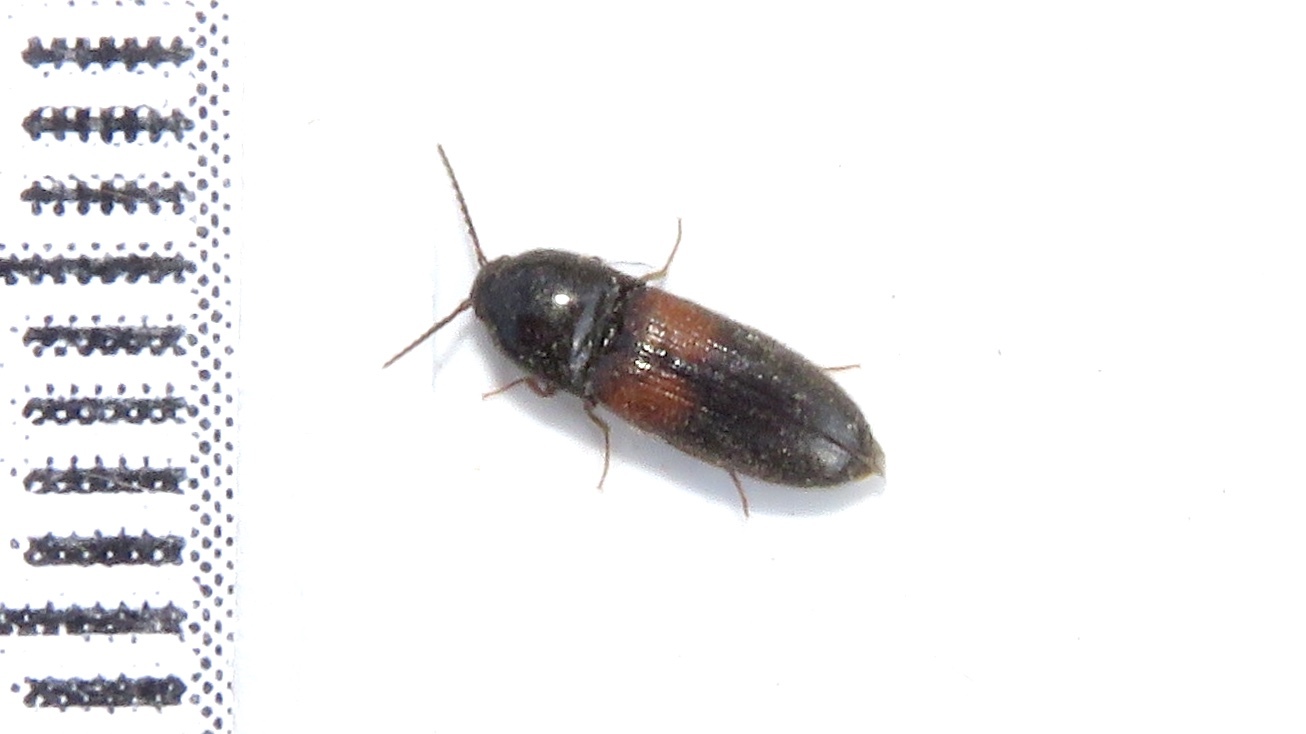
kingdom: Animalia
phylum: Arthropoda
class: Insecta
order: Coleoptera
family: Elateridae
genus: Ampedus
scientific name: Ampedus pullus
